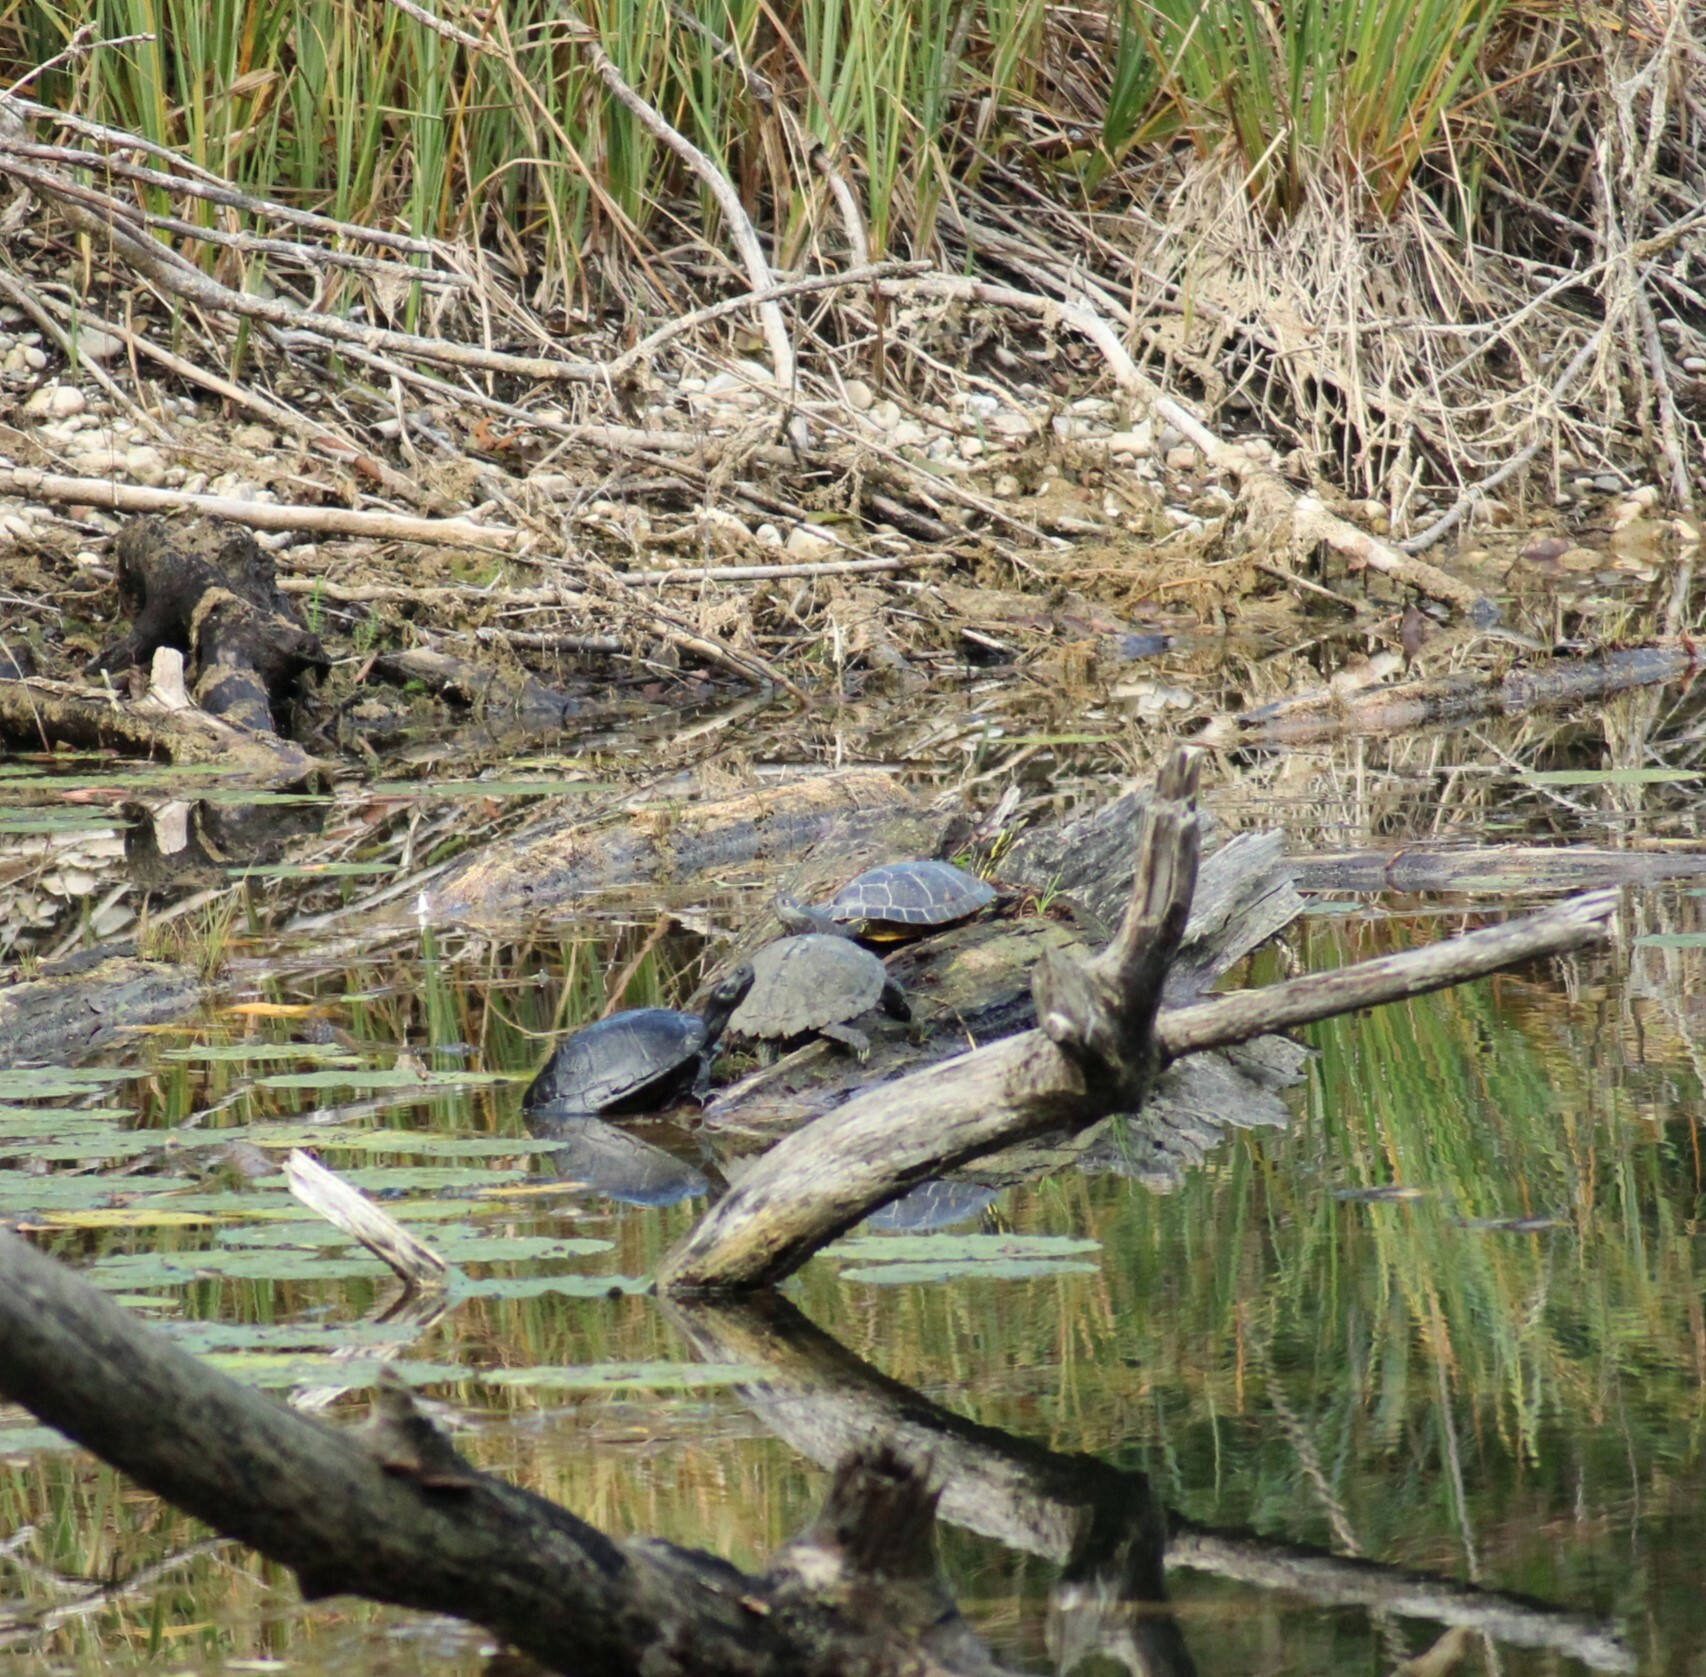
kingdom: Animalia
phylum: Chordata
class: Testudines
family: Emydidae
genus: Graptemys
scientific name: Graptemys pseudogeographica
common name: False map turtle
